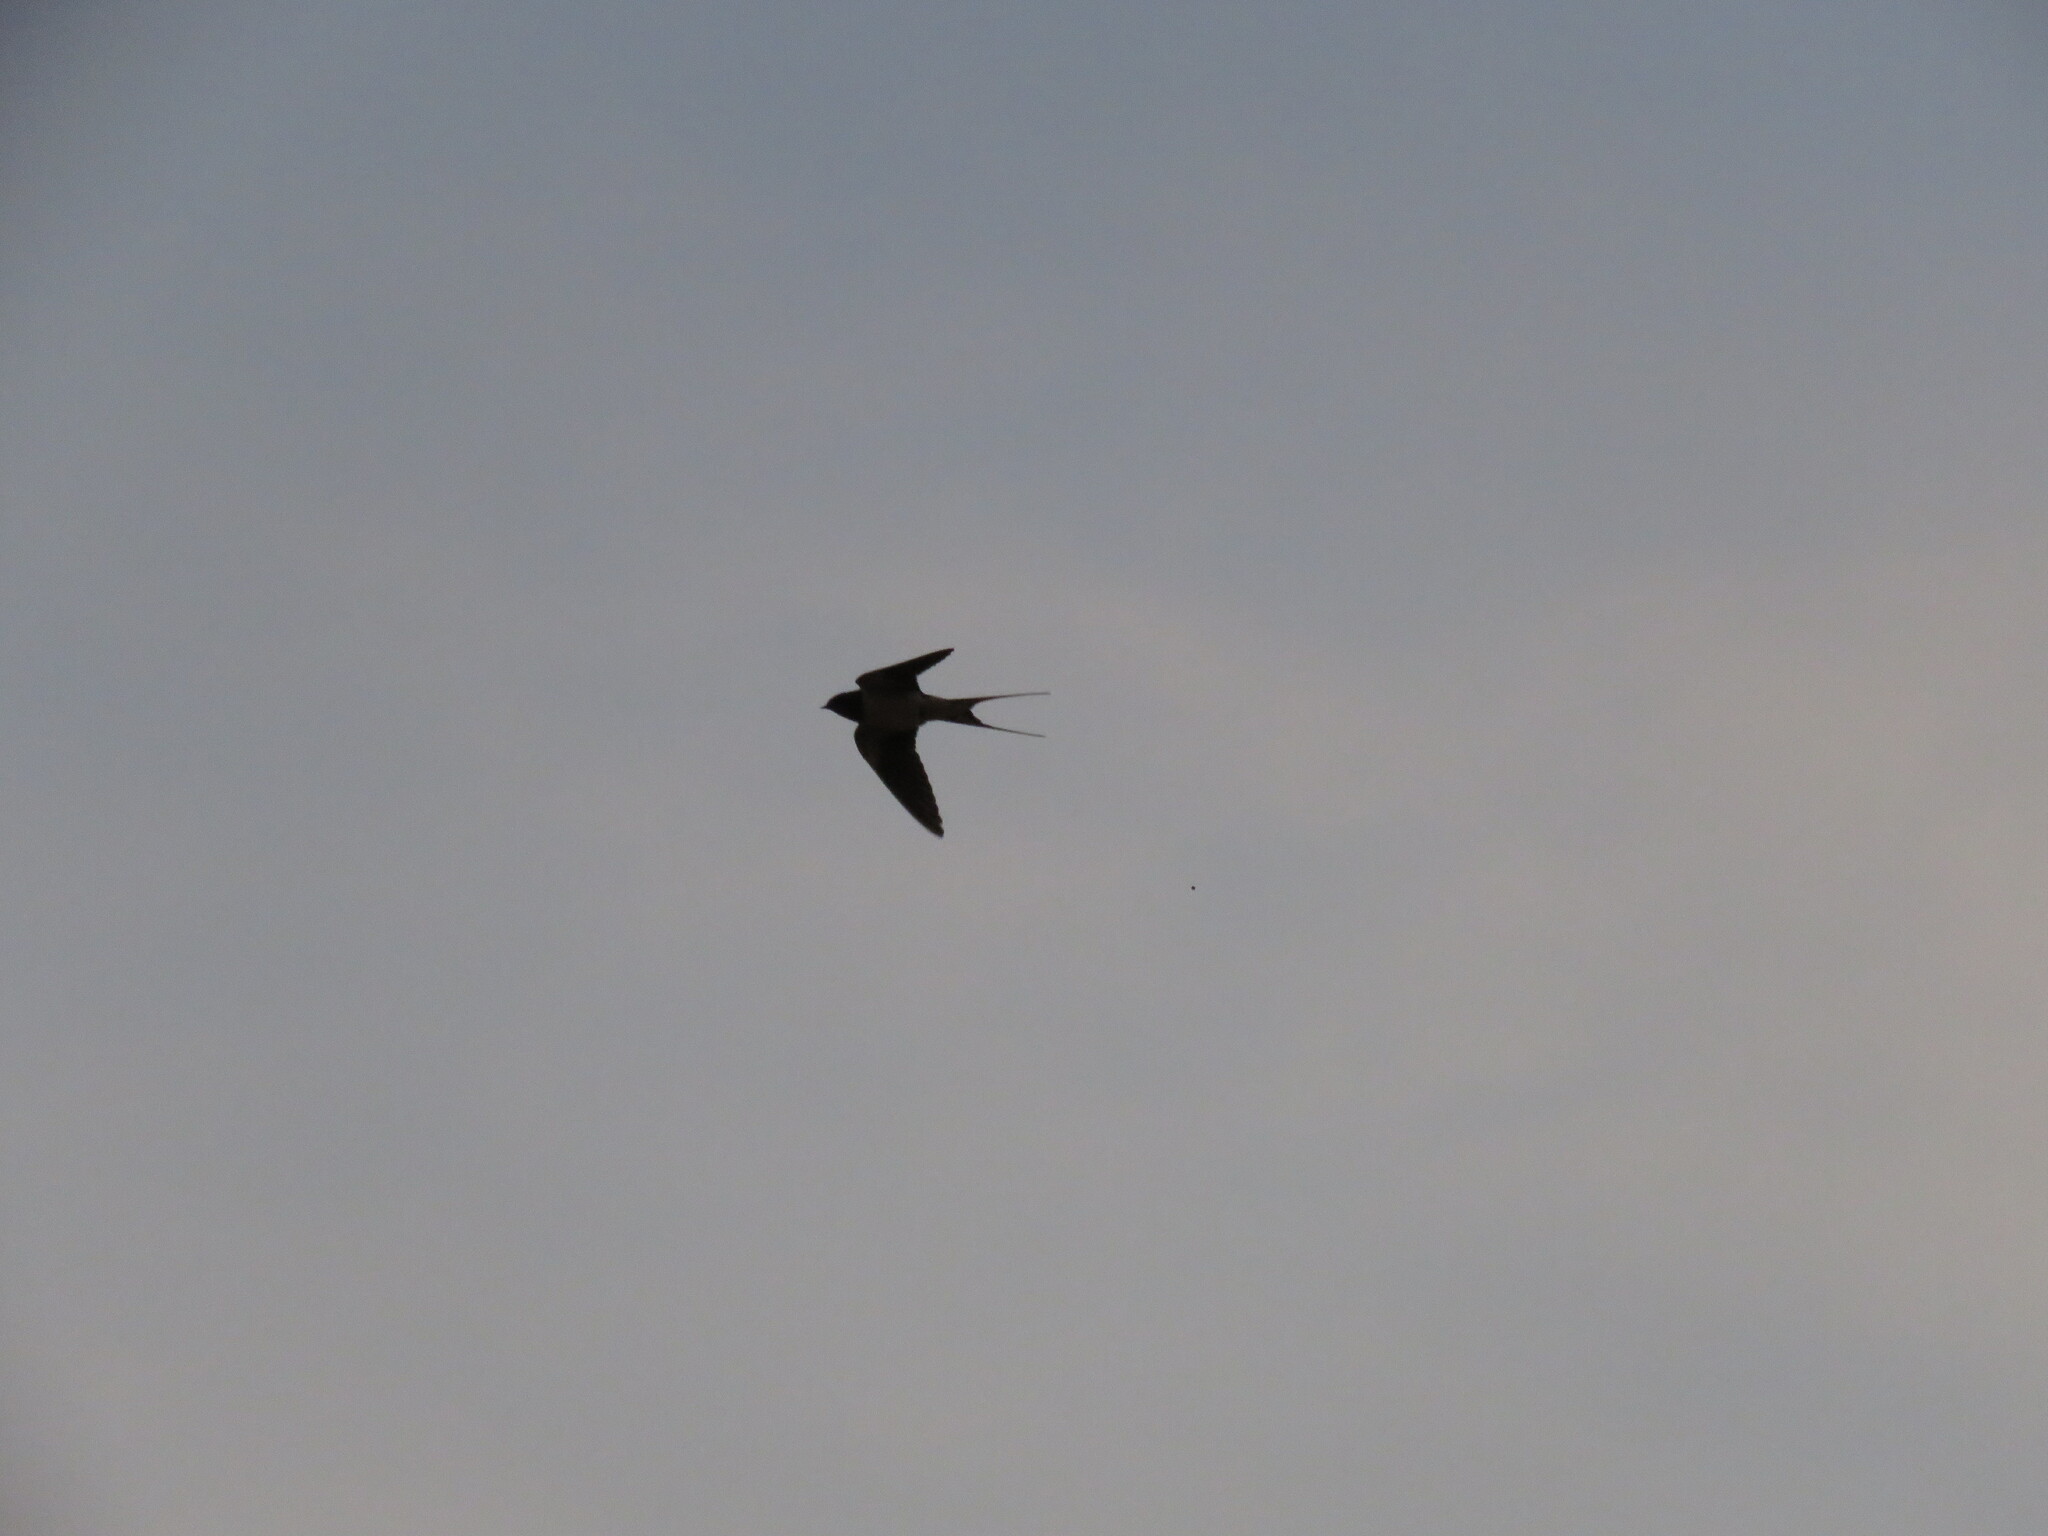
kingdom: Animalia
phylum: Chordata
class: Aves
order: Passeriformes
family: Hirundinidae
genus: Hirundo
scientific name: Hirundo rustica
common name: Barn swallow
